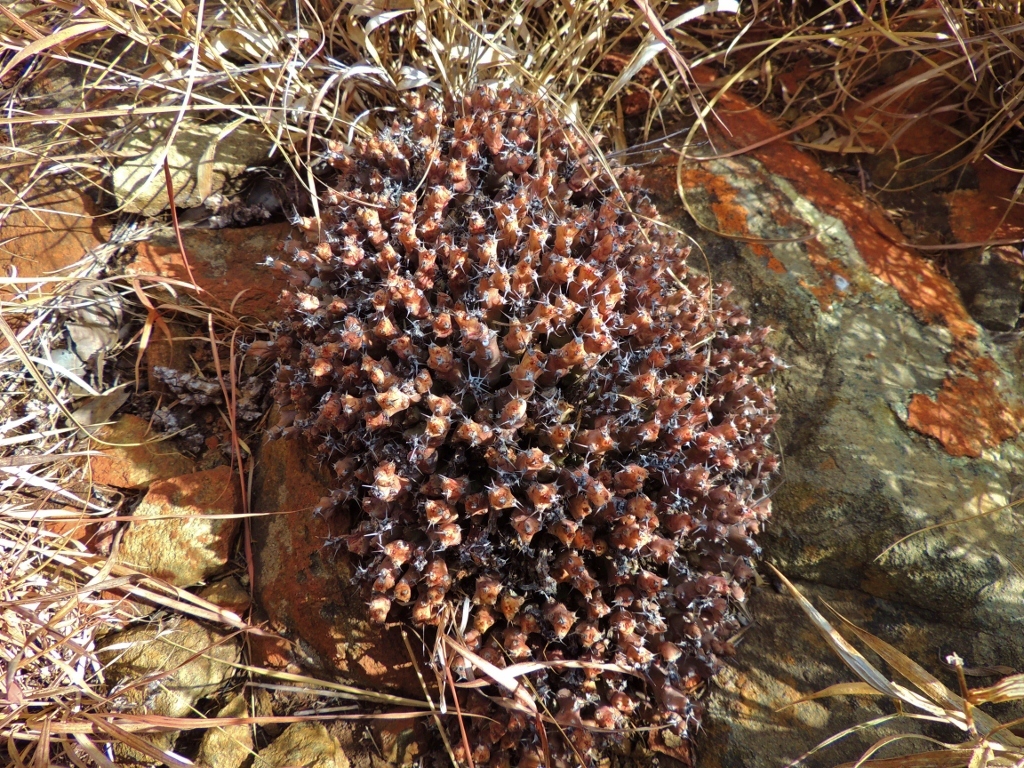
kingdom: Plantae
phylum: Tracheophyta
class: Magnoliopsida
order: Malpighiales
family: Euphorbiaceae
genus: Euphorbia
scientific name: Euphorbia acervata
